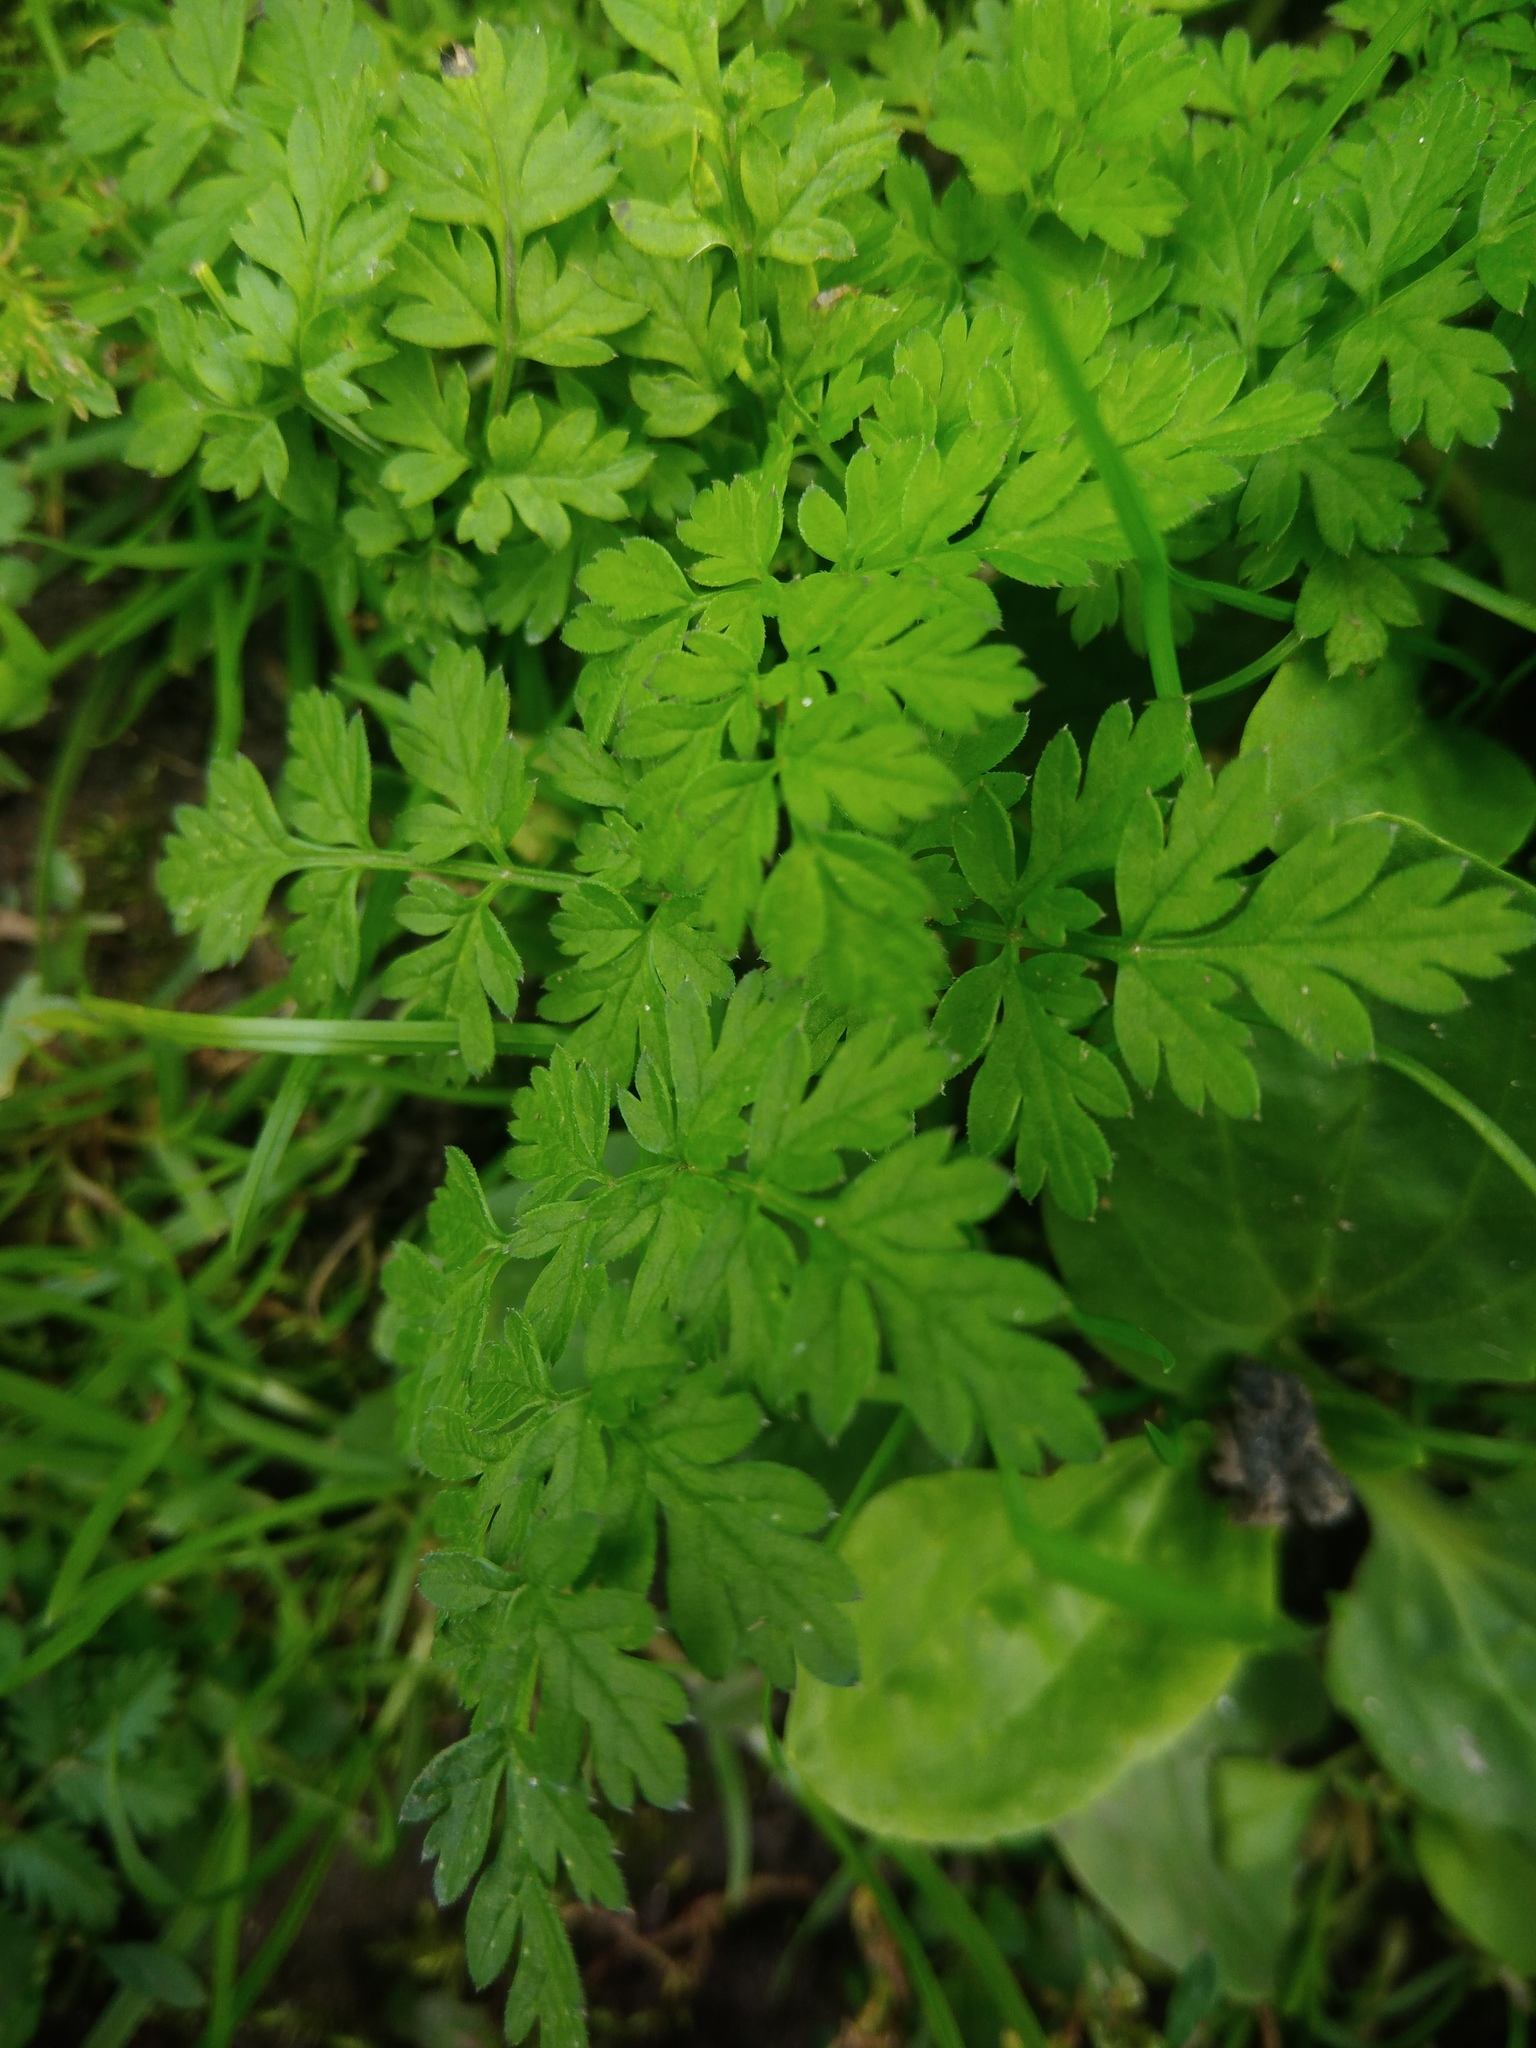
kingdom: Plantae
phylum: Tracheophyta
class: Magnoliopsida
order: Apiales
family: Apiaceae
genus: Anthriscus
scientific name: Anthriscus sylvestris
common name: Cow parsley
